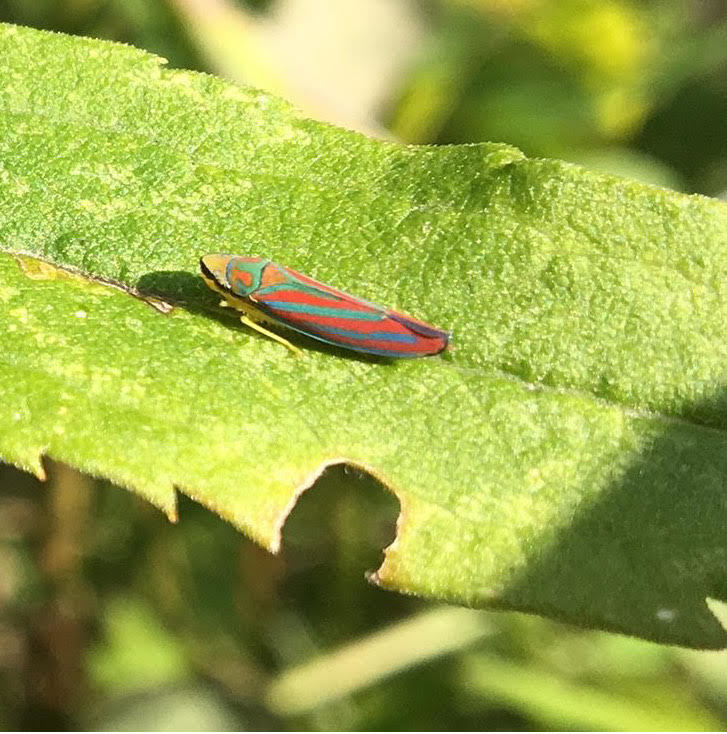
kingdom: Animalia
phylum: Arthropoda
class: Insecta
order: Hemiptera
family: Cicadellidae
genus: Graphocephala
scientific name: Graphocephala coccinea
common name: Candy-striped leafhopper
